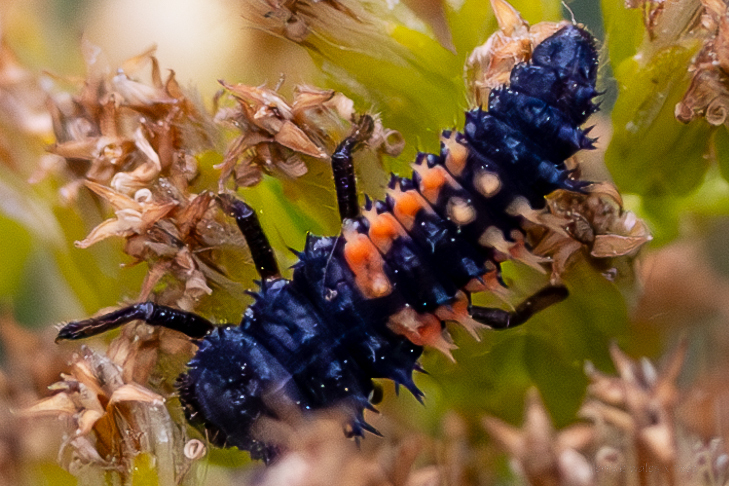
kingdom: Animalia
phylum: Arthropoda
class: Insecta
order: Coleoptera
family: Coccinellidae
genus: Harmonia
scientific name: Harmonia axyridis
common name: Harlequin ladybird
